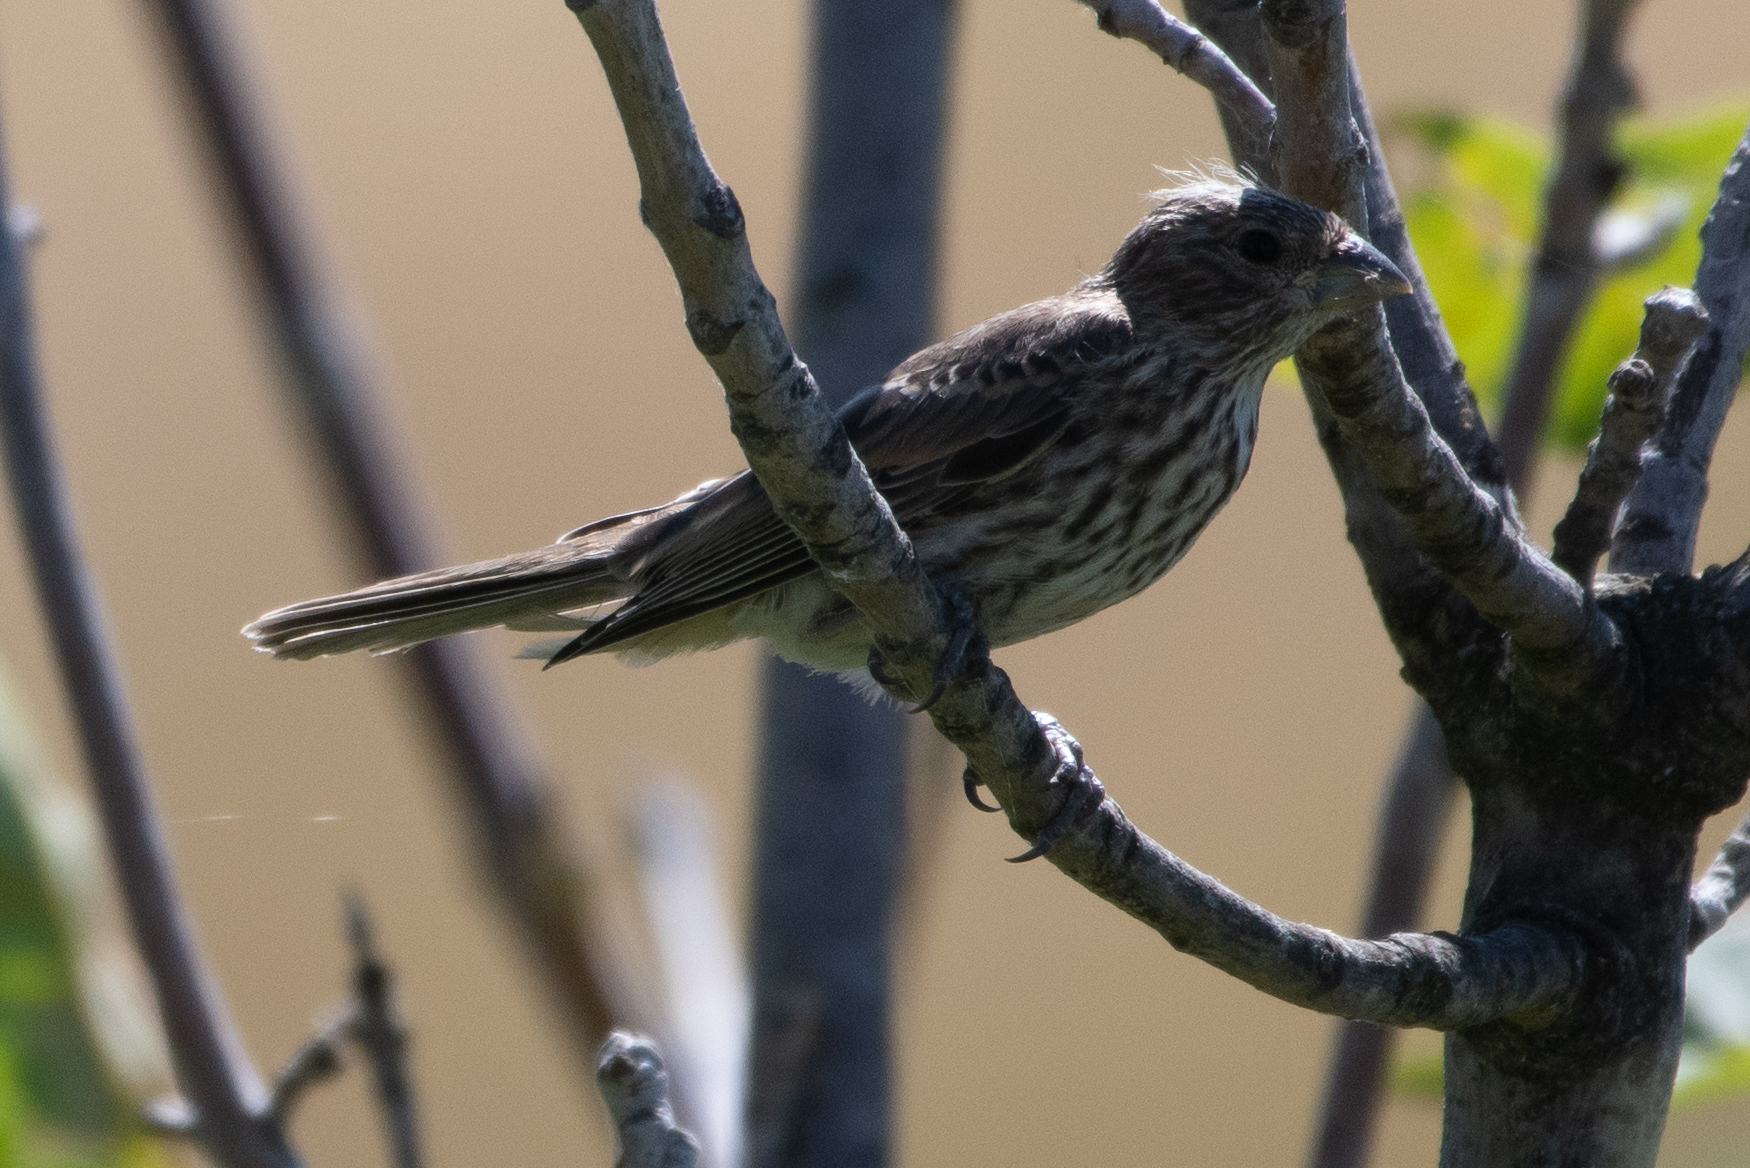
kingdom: Animalia
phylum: Chordata
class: Aves
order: Passeriformes
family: Fringillidae
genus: Haemorhous
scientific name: Haemorhous mexicanus
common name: House finch
